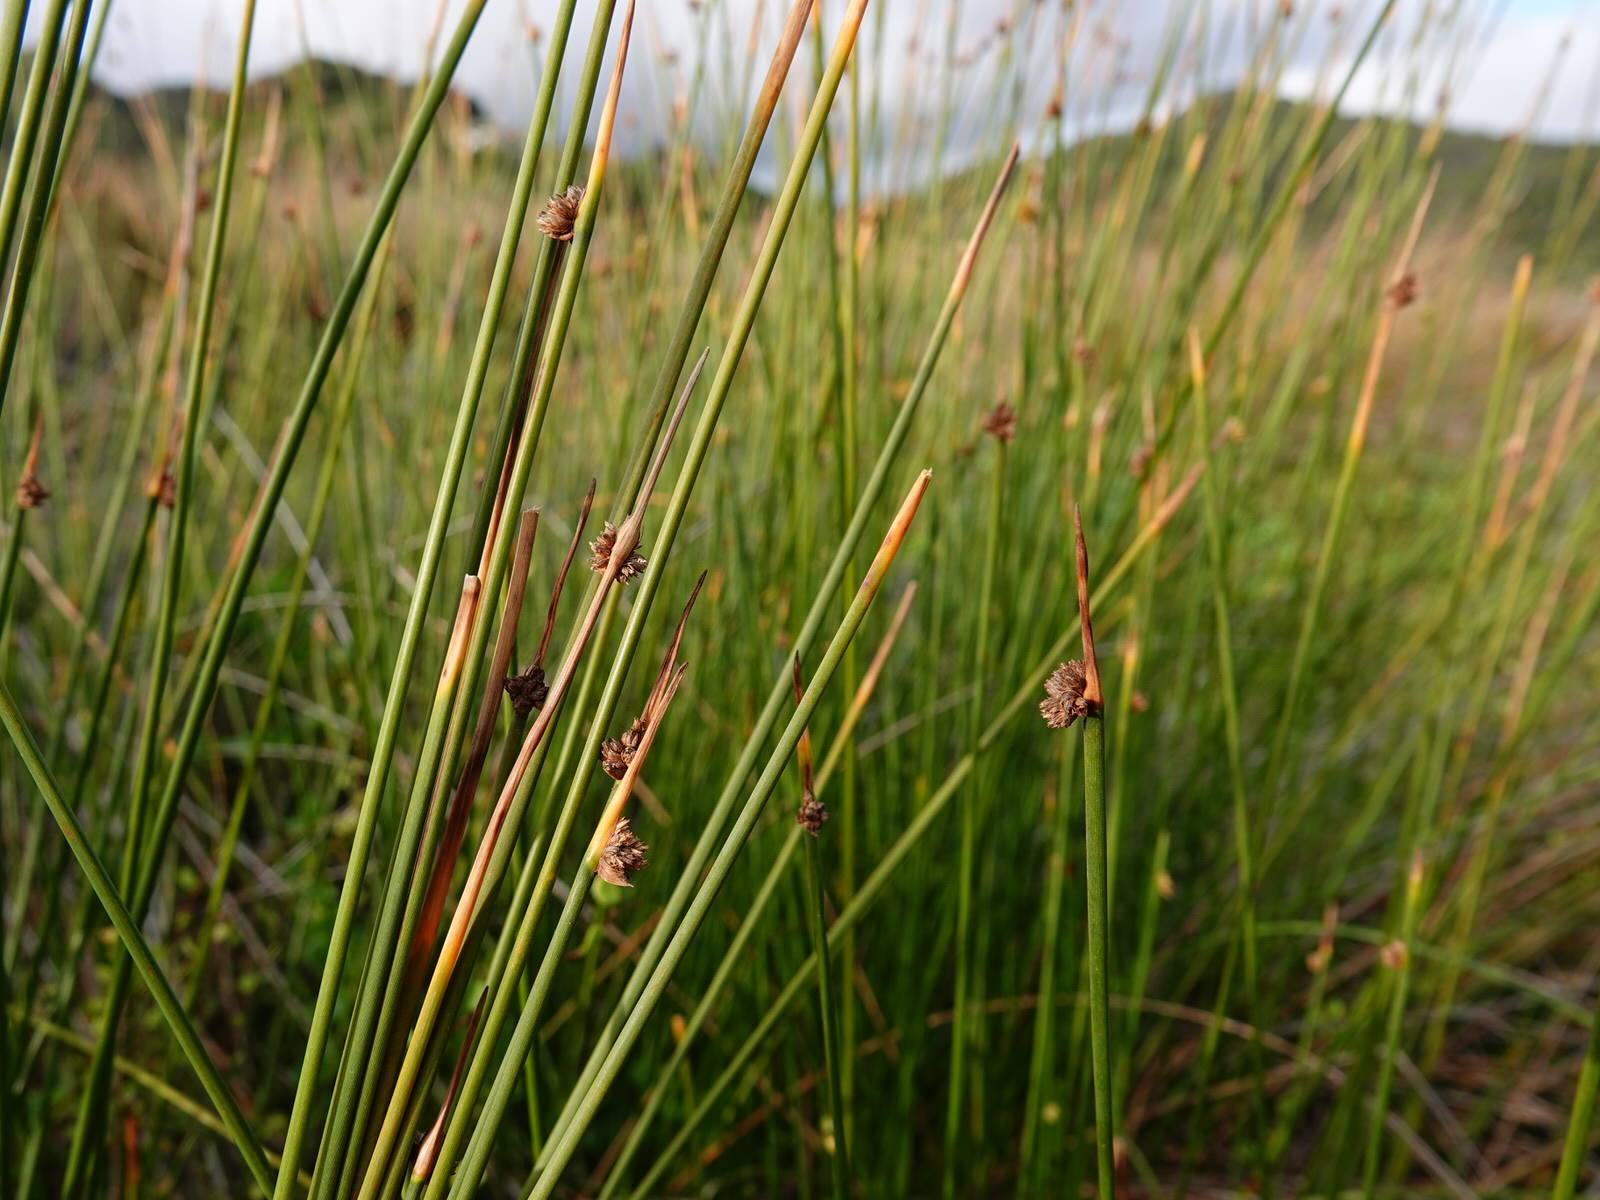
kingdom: Plantae
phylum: Tracheophyta
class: Liliopsida
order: Poales
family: Cyperaceae
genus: Ficinia
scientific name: Ficinia nodosa
